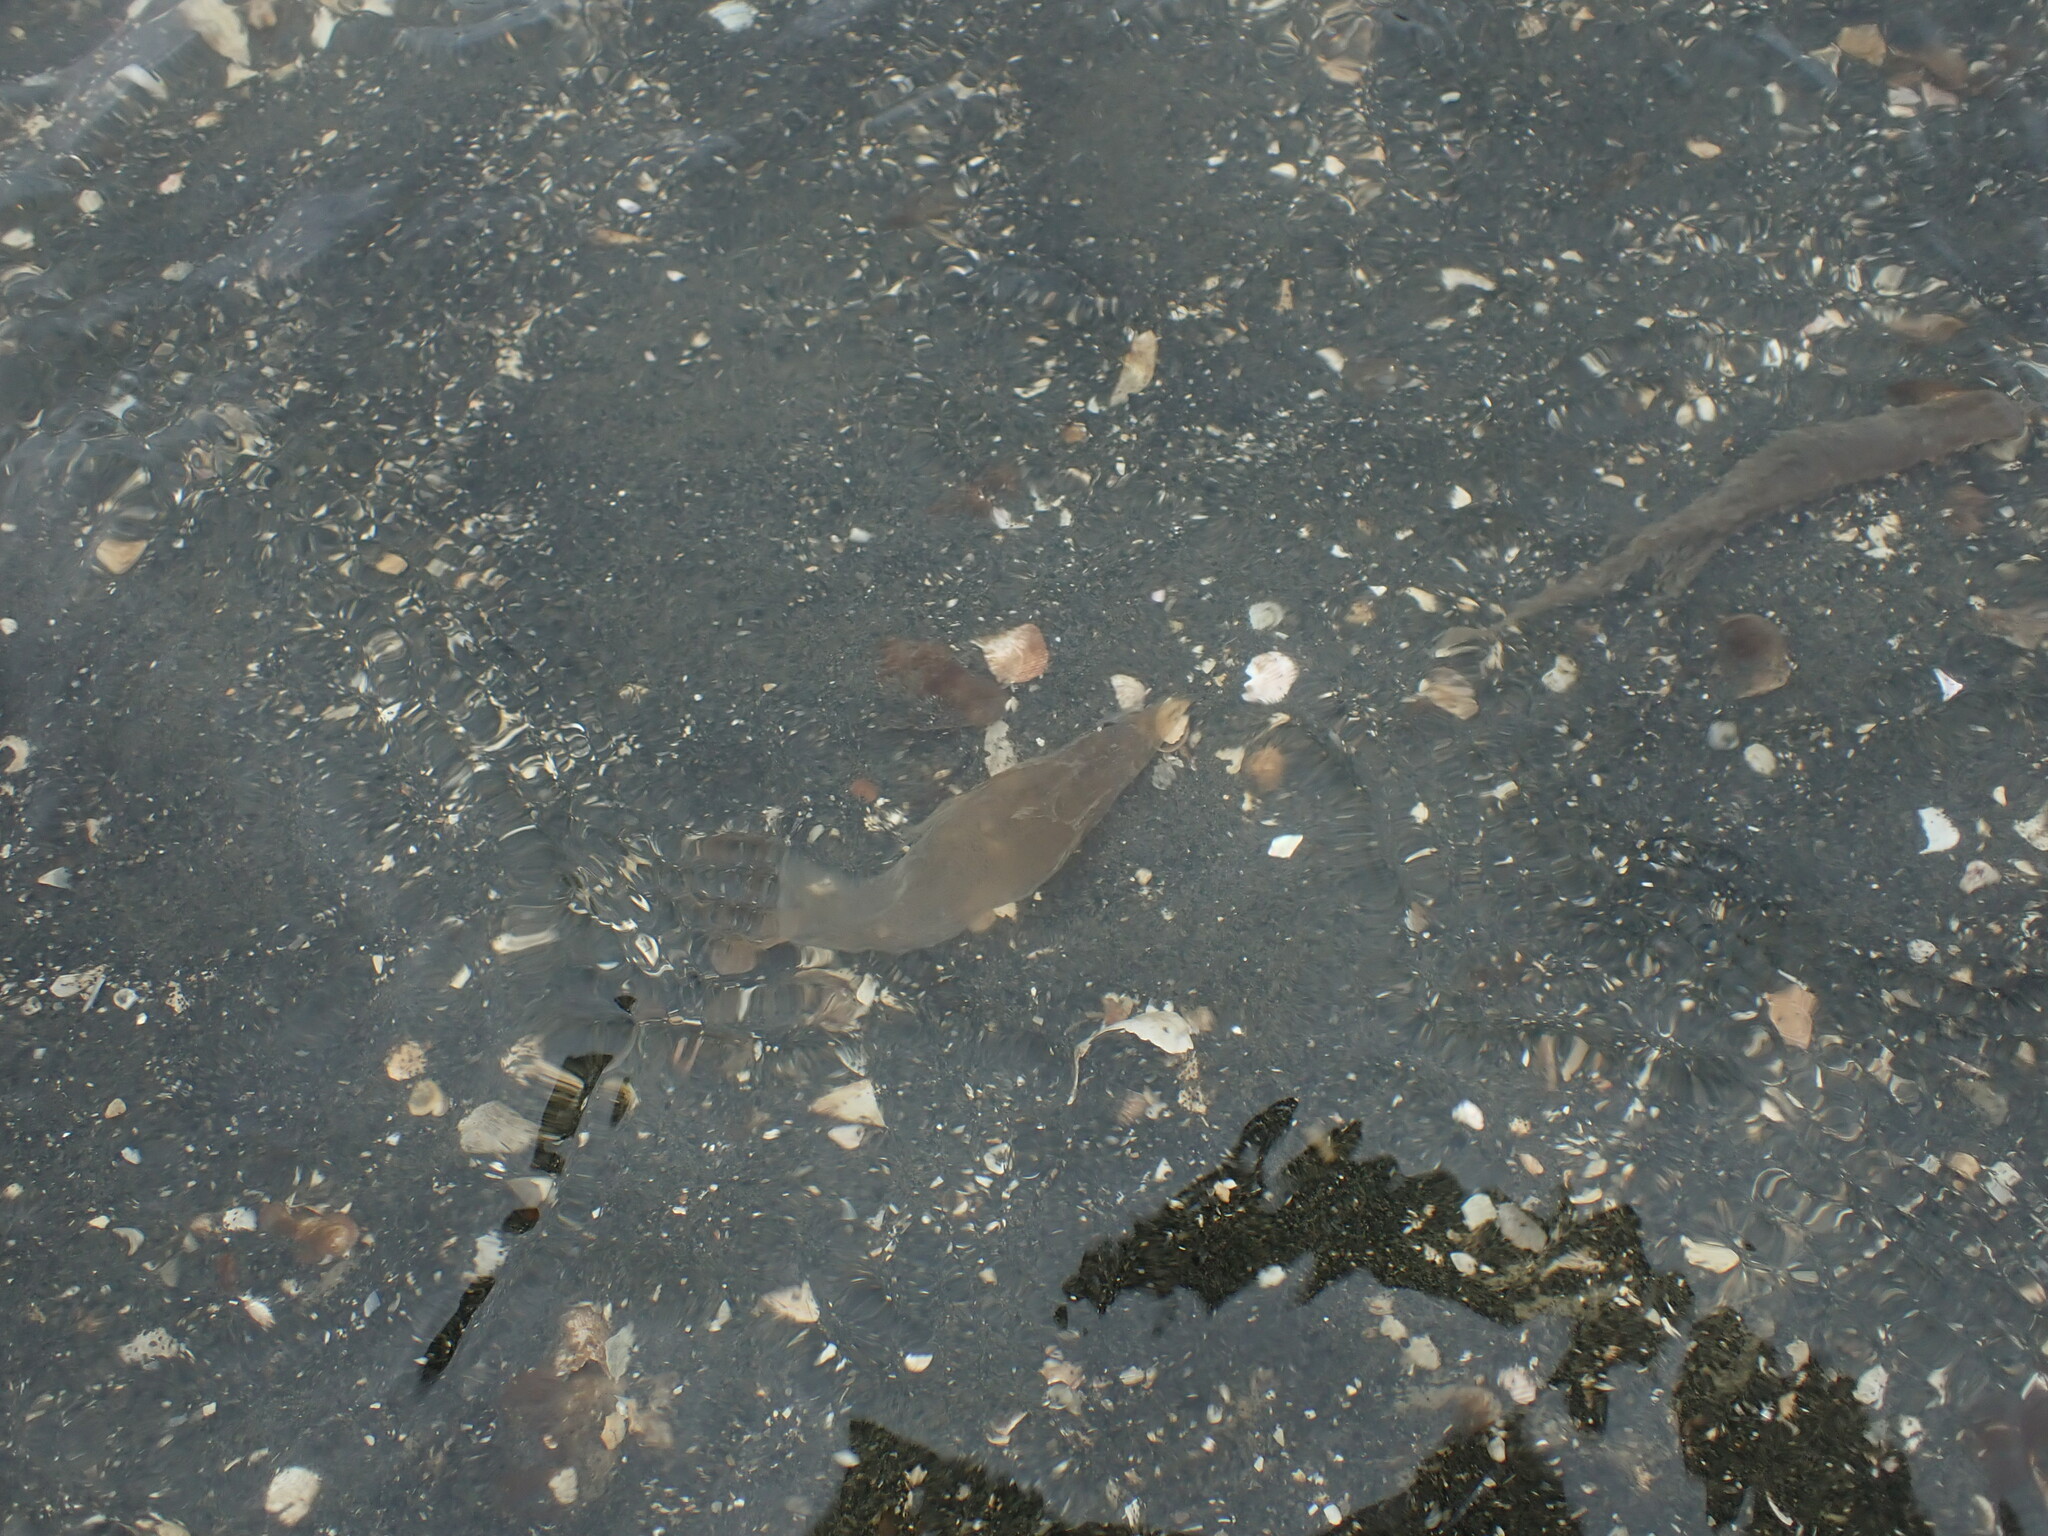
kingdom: Animalia
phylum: Mollusca
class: Gastropoda
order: Cephalaspidea
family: Philinidae
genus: Philine
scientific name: Philine
